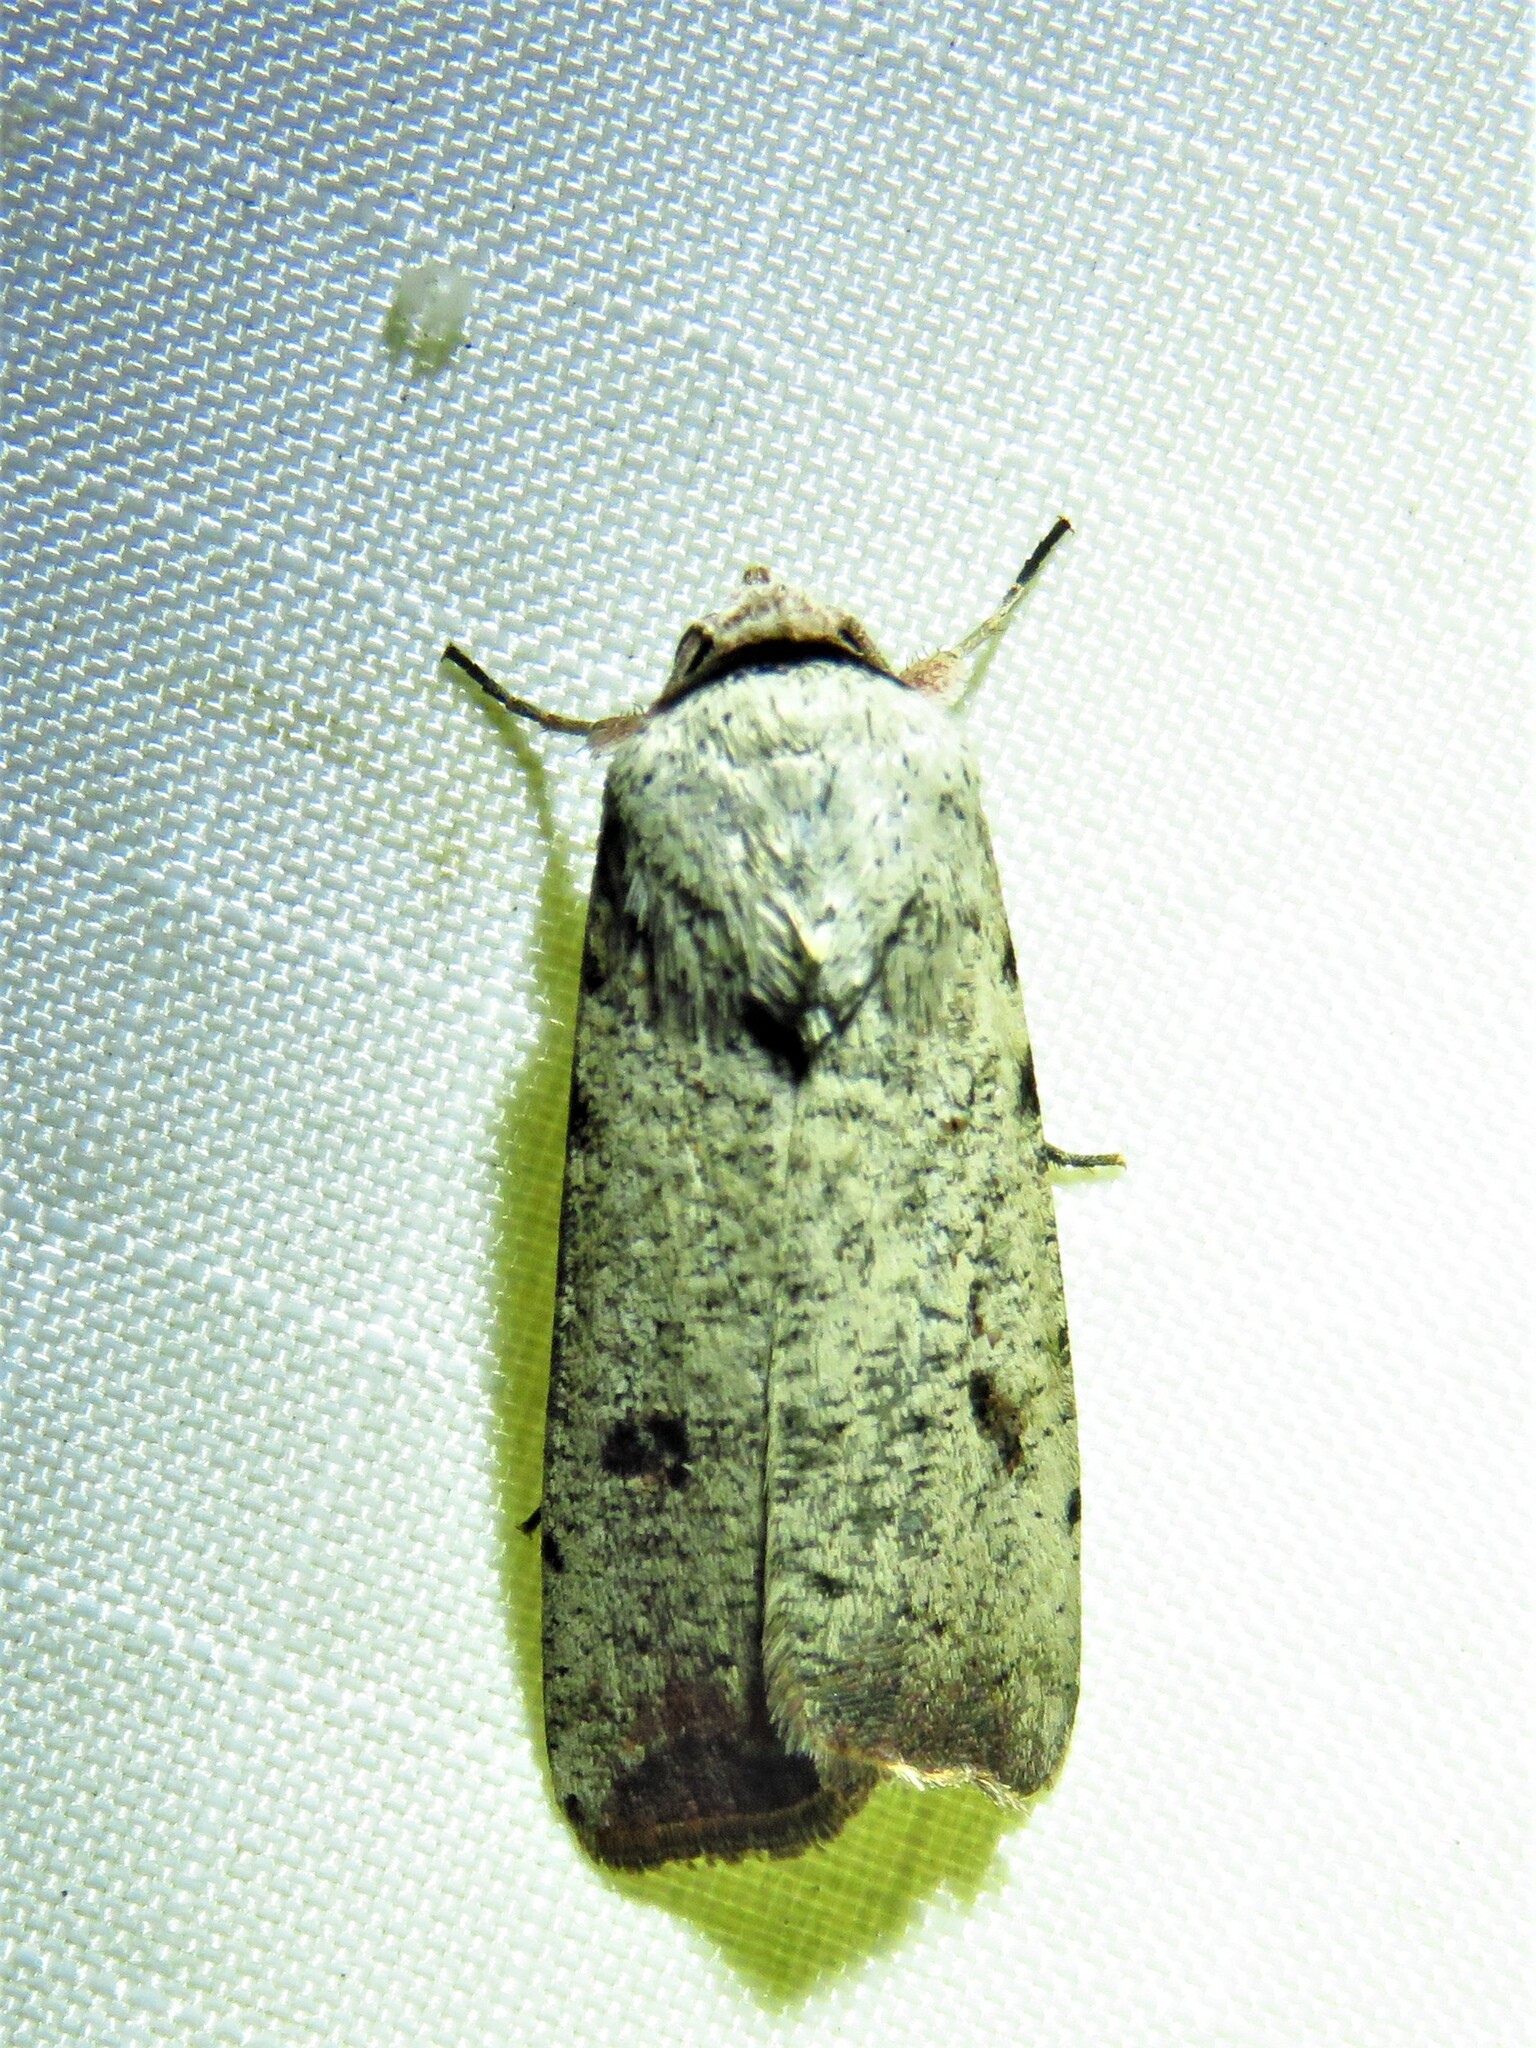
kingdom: Animalia
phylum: Arthropoda
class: Insecta
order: Lepidoptera
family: Noctuidae
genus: Anicla
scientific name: Anicla infecta
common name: Green cutworm
